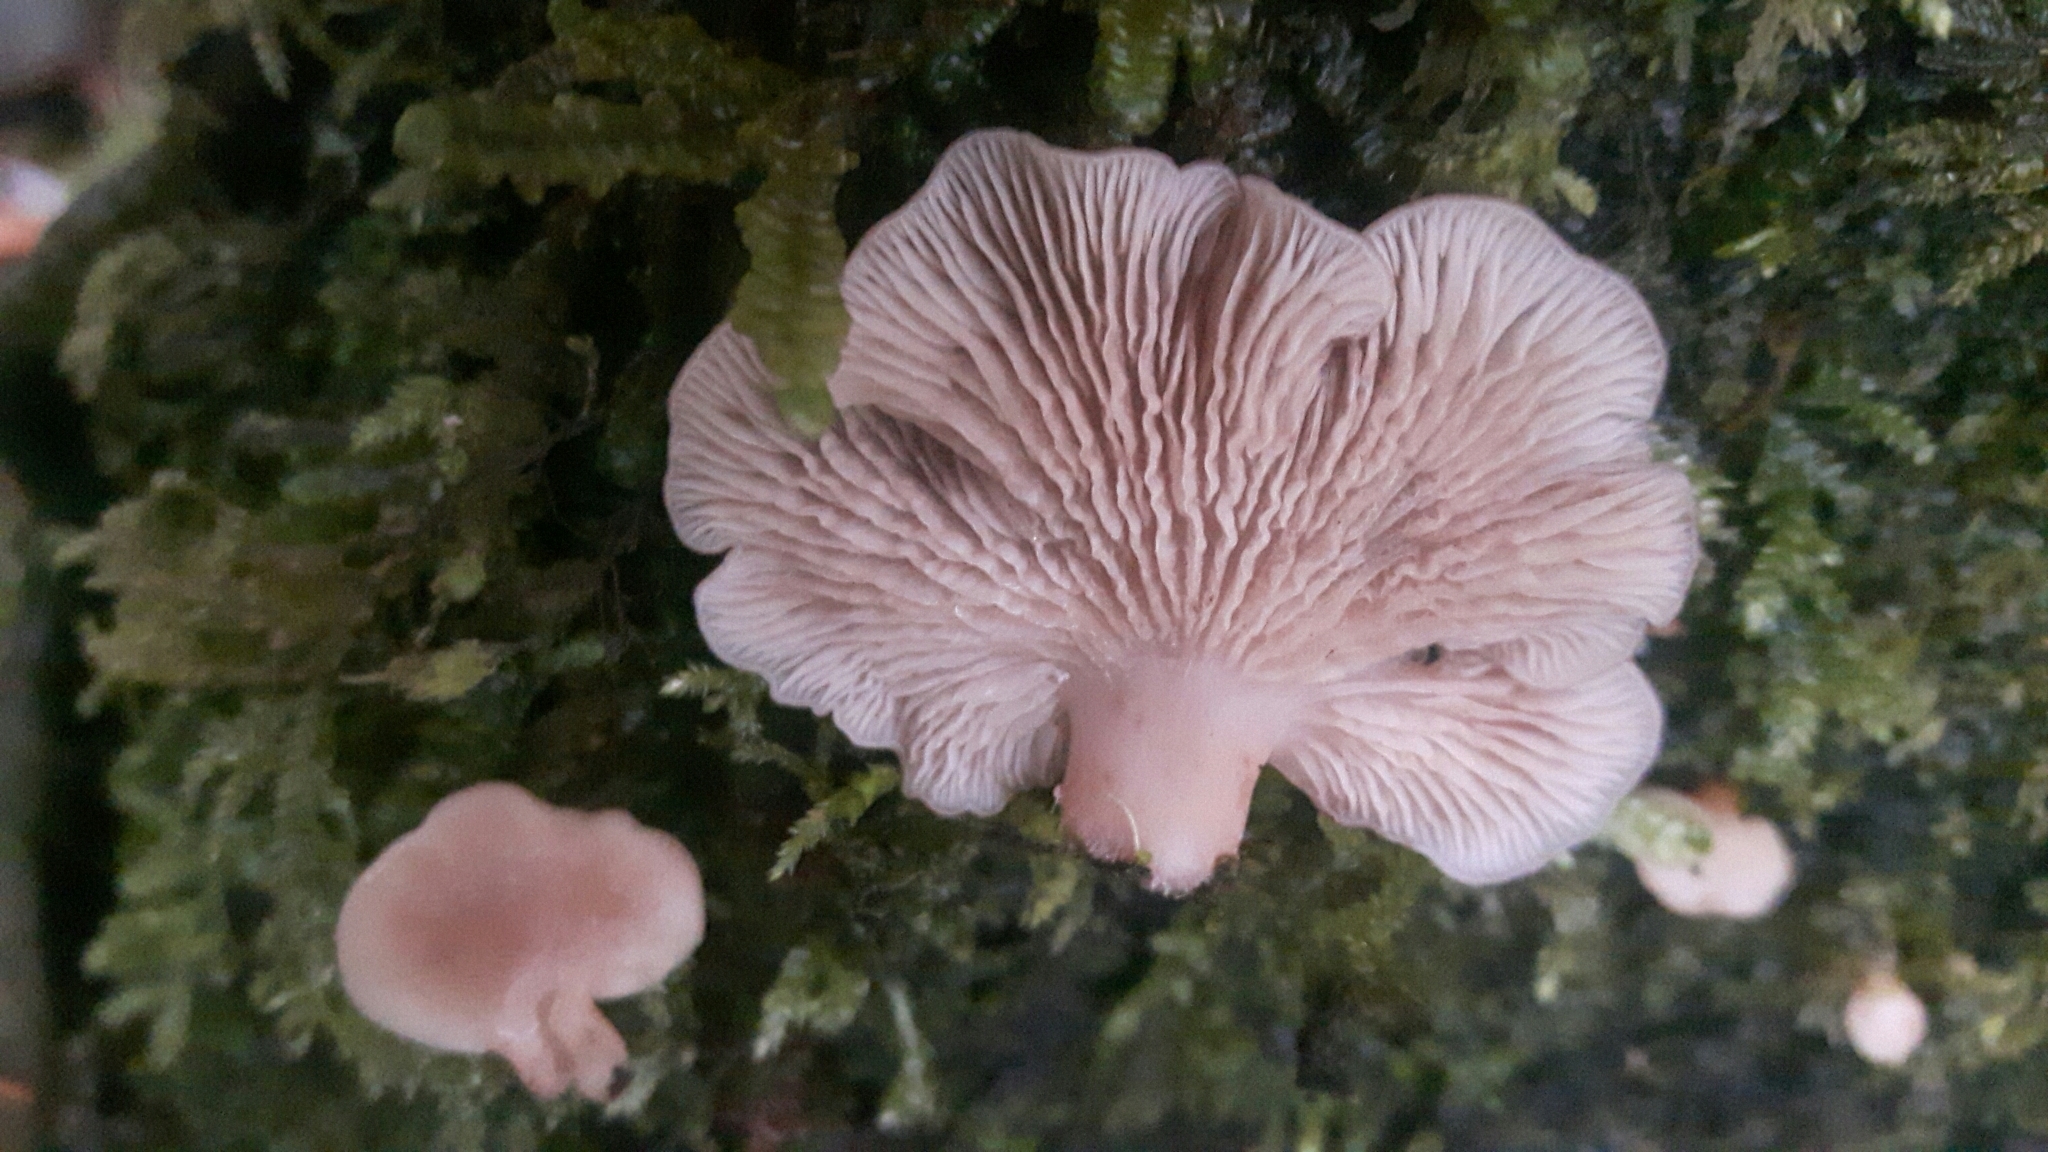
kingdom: Fungi
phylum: Basidiomycota
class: Agaricomycetes
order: Agaricales
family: Mycenaceae
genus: Panellus
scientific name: Panellus longinquus
